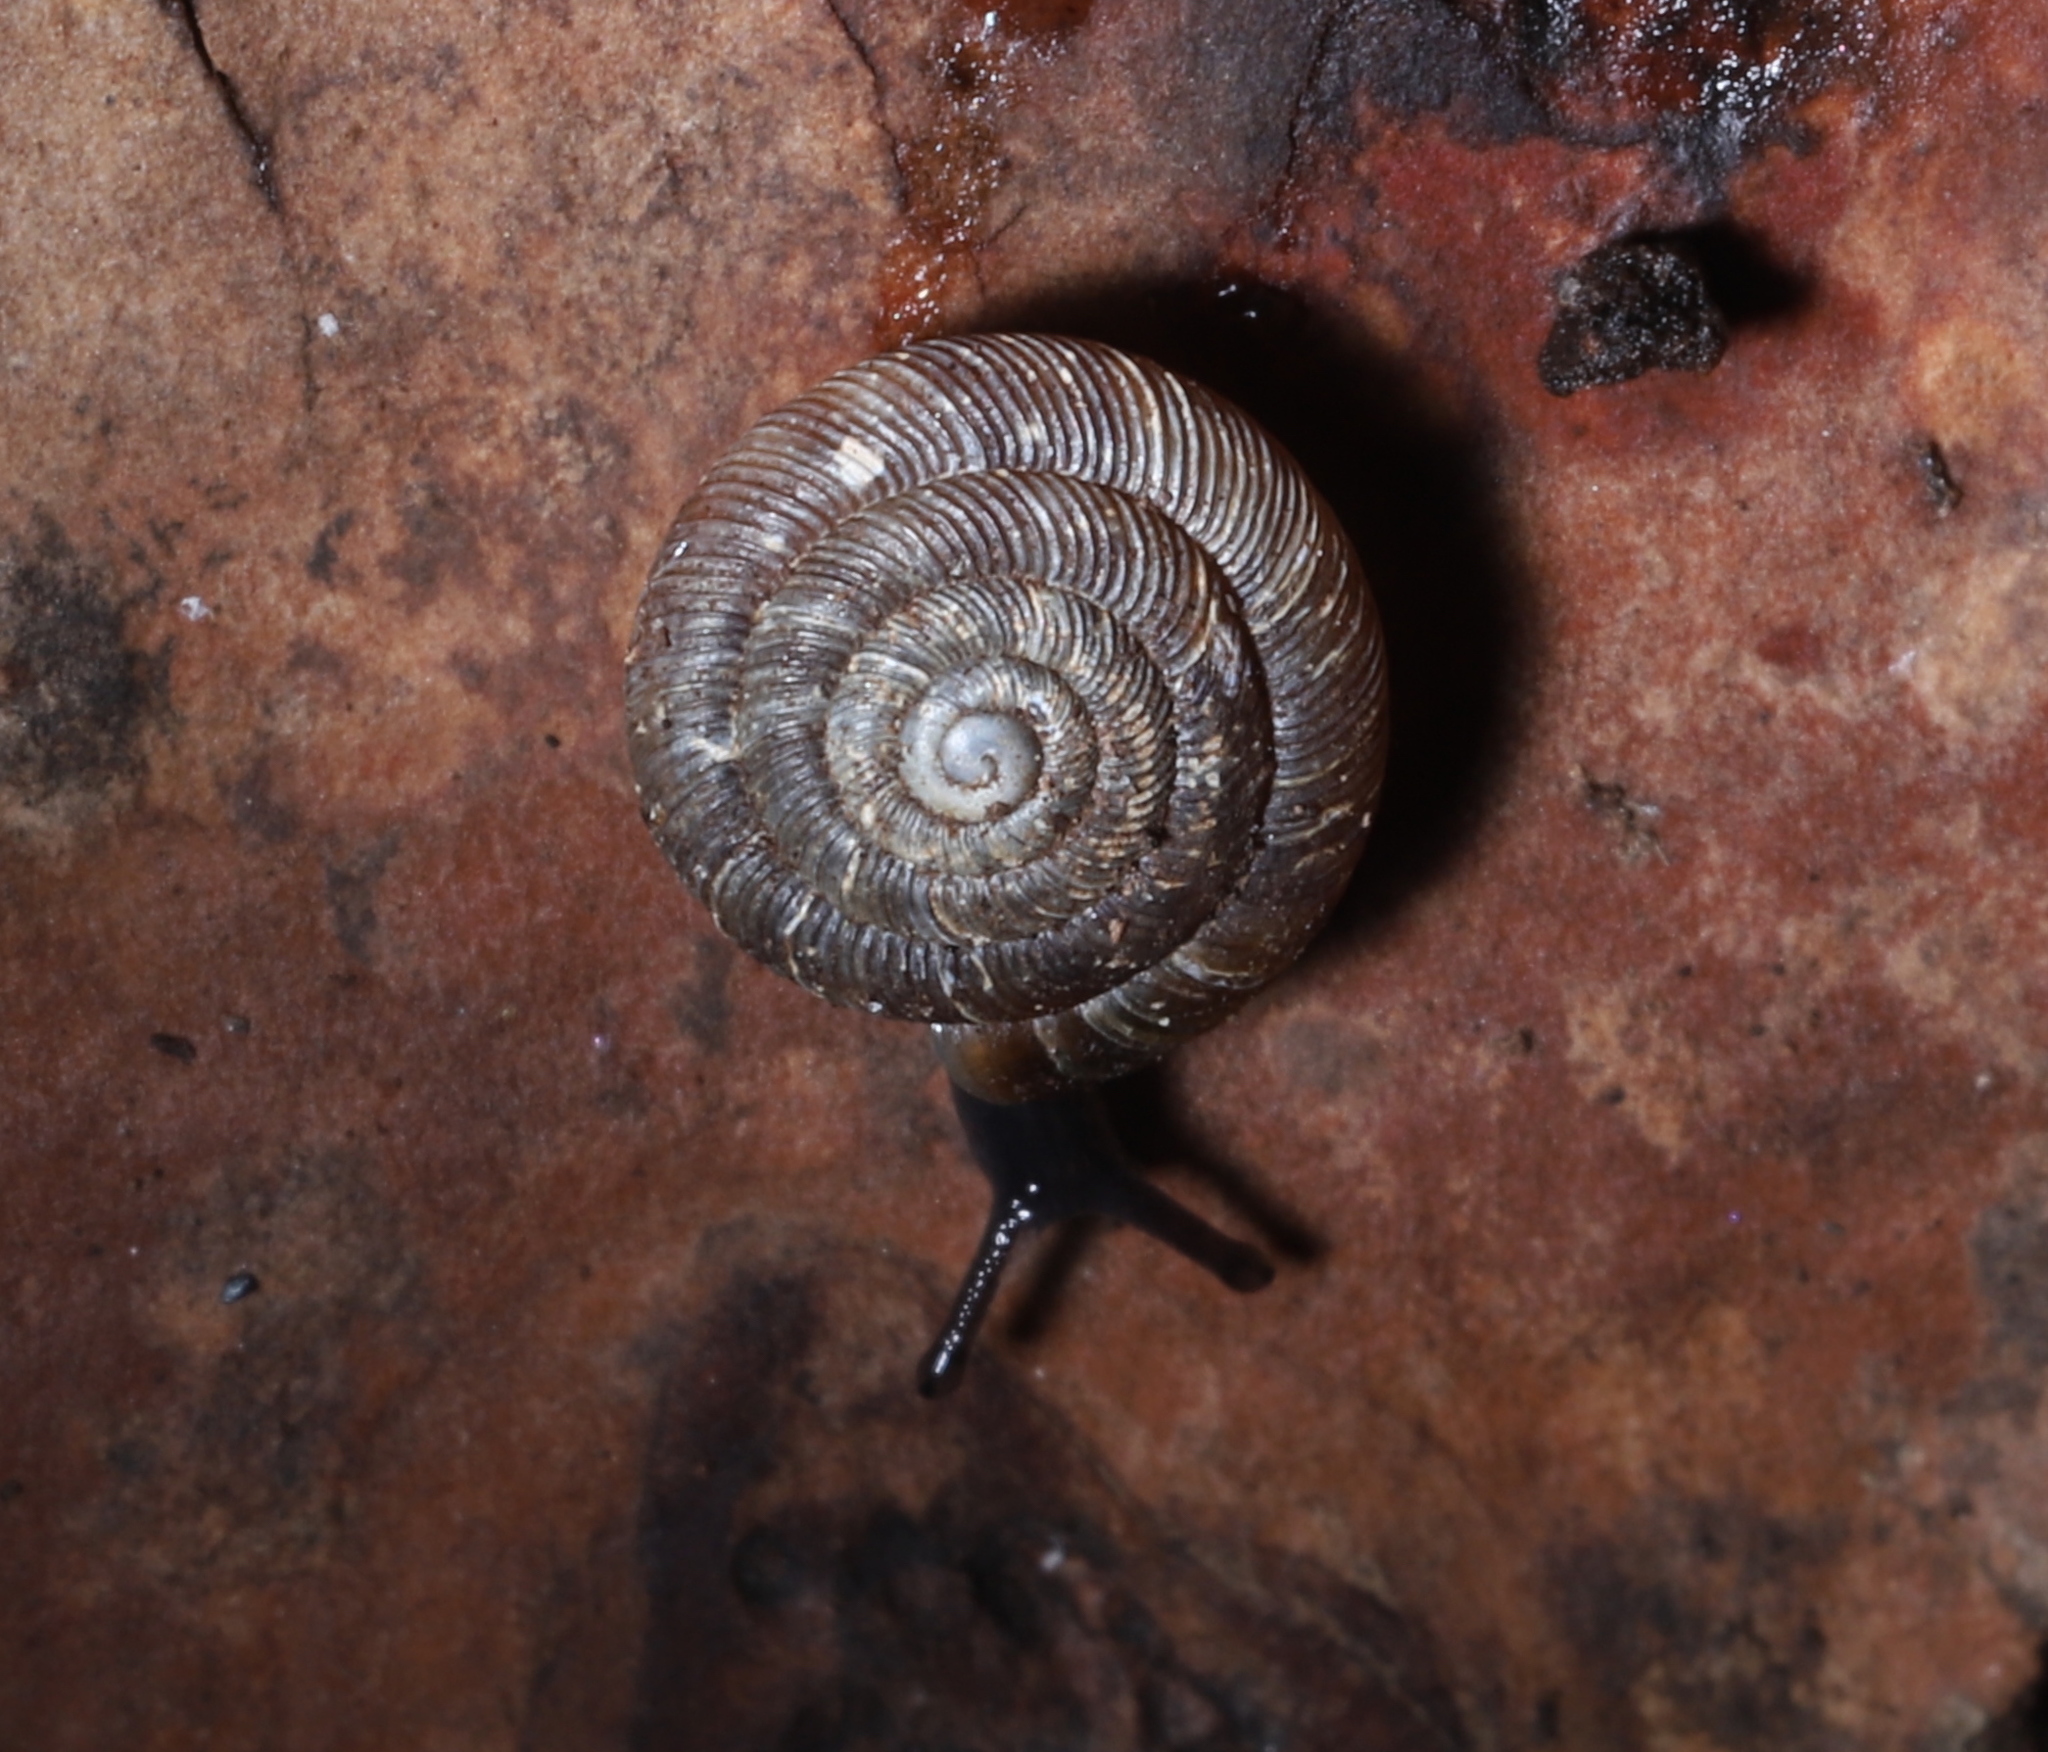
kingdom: Animalia
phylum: Mollusca
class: Gastropoda
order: Stylommatophora
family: Discidae
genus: Discus
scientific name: Discus rotundatus
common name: Rounded snail
